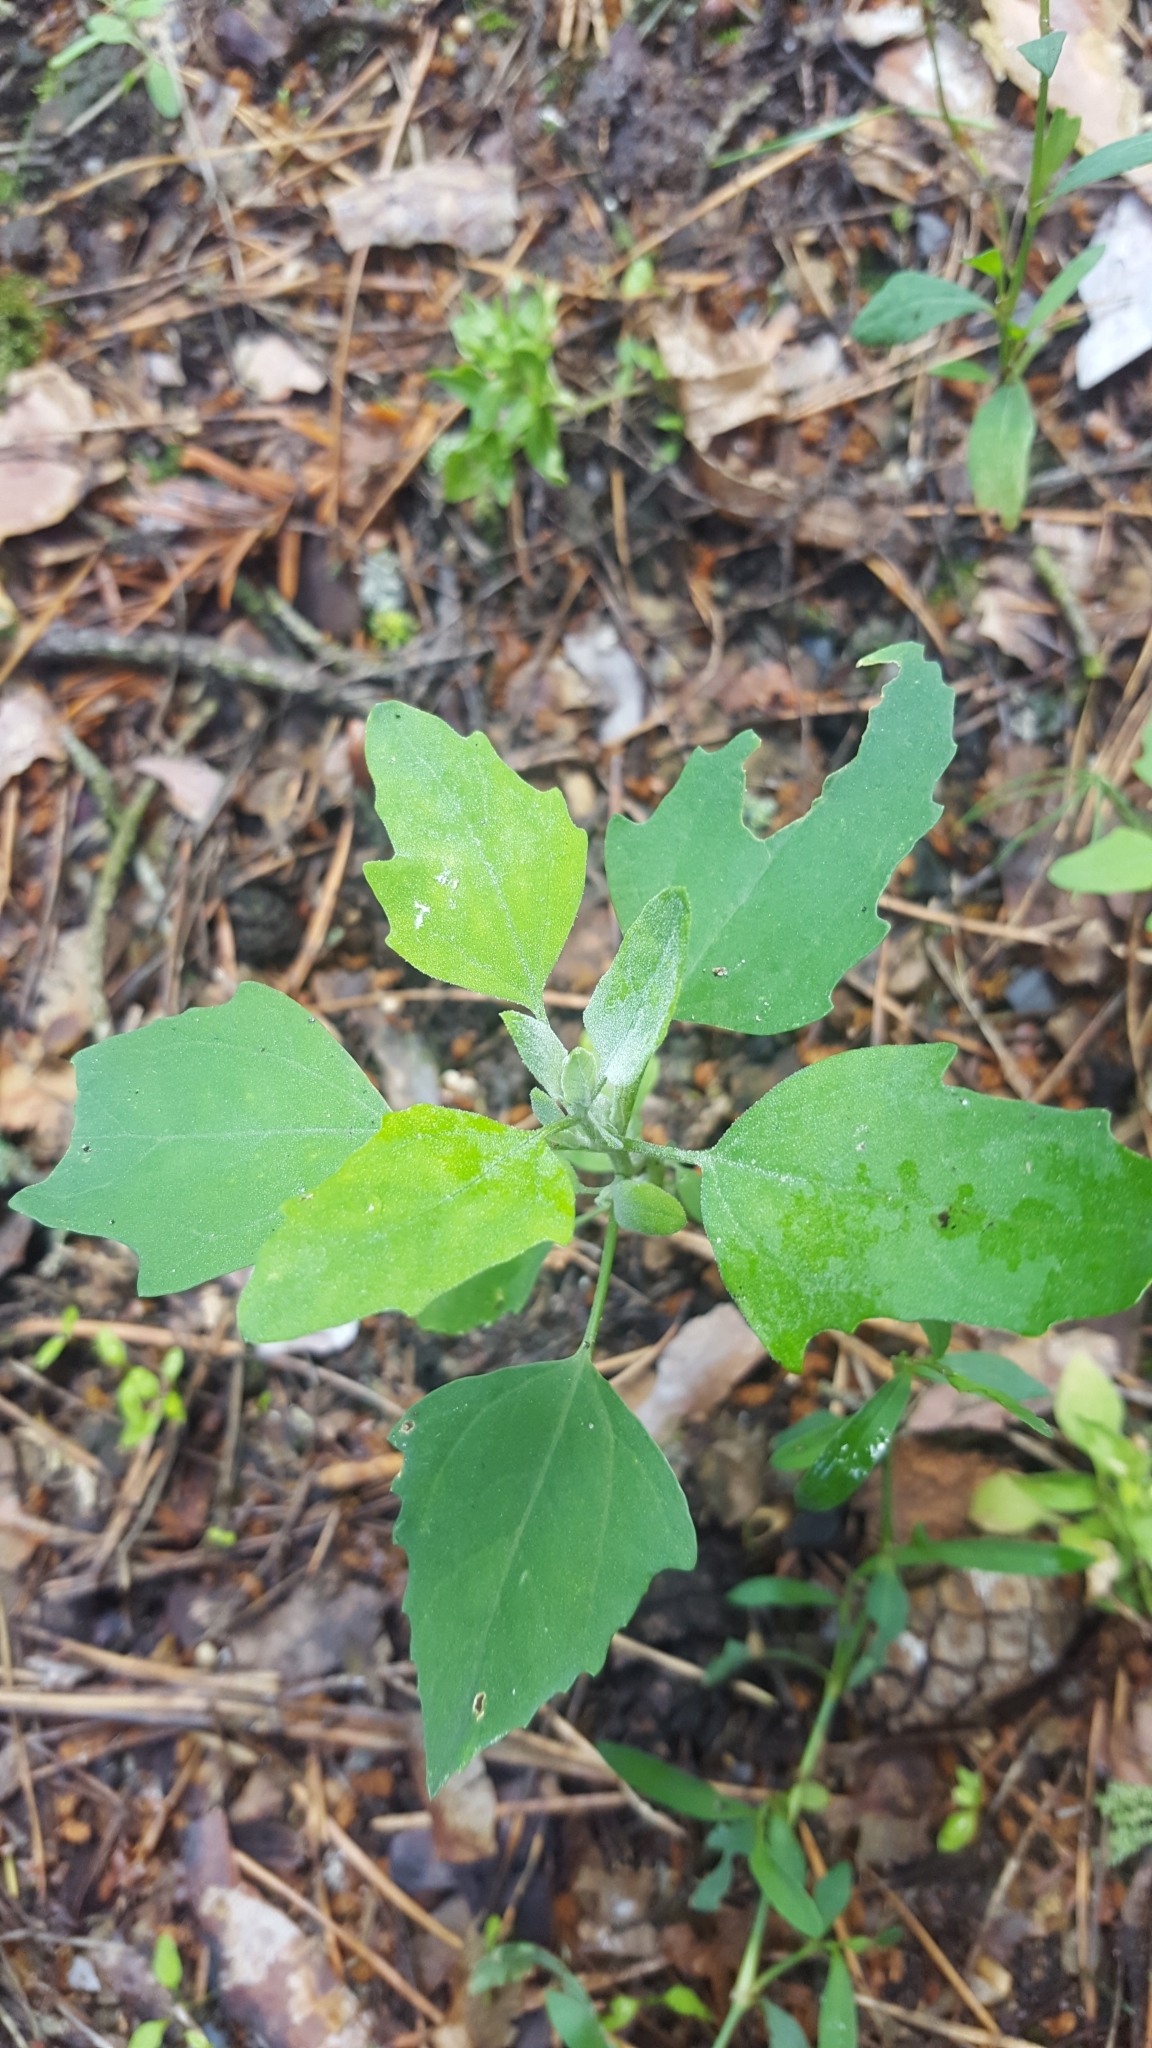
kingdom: Plantae
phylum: Tracheophyta
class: Magnoliopsida
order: Caryophyllales
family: Amaranthaceae
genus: Chenopodium
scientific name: Chenopodium album
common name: Fat-hen
